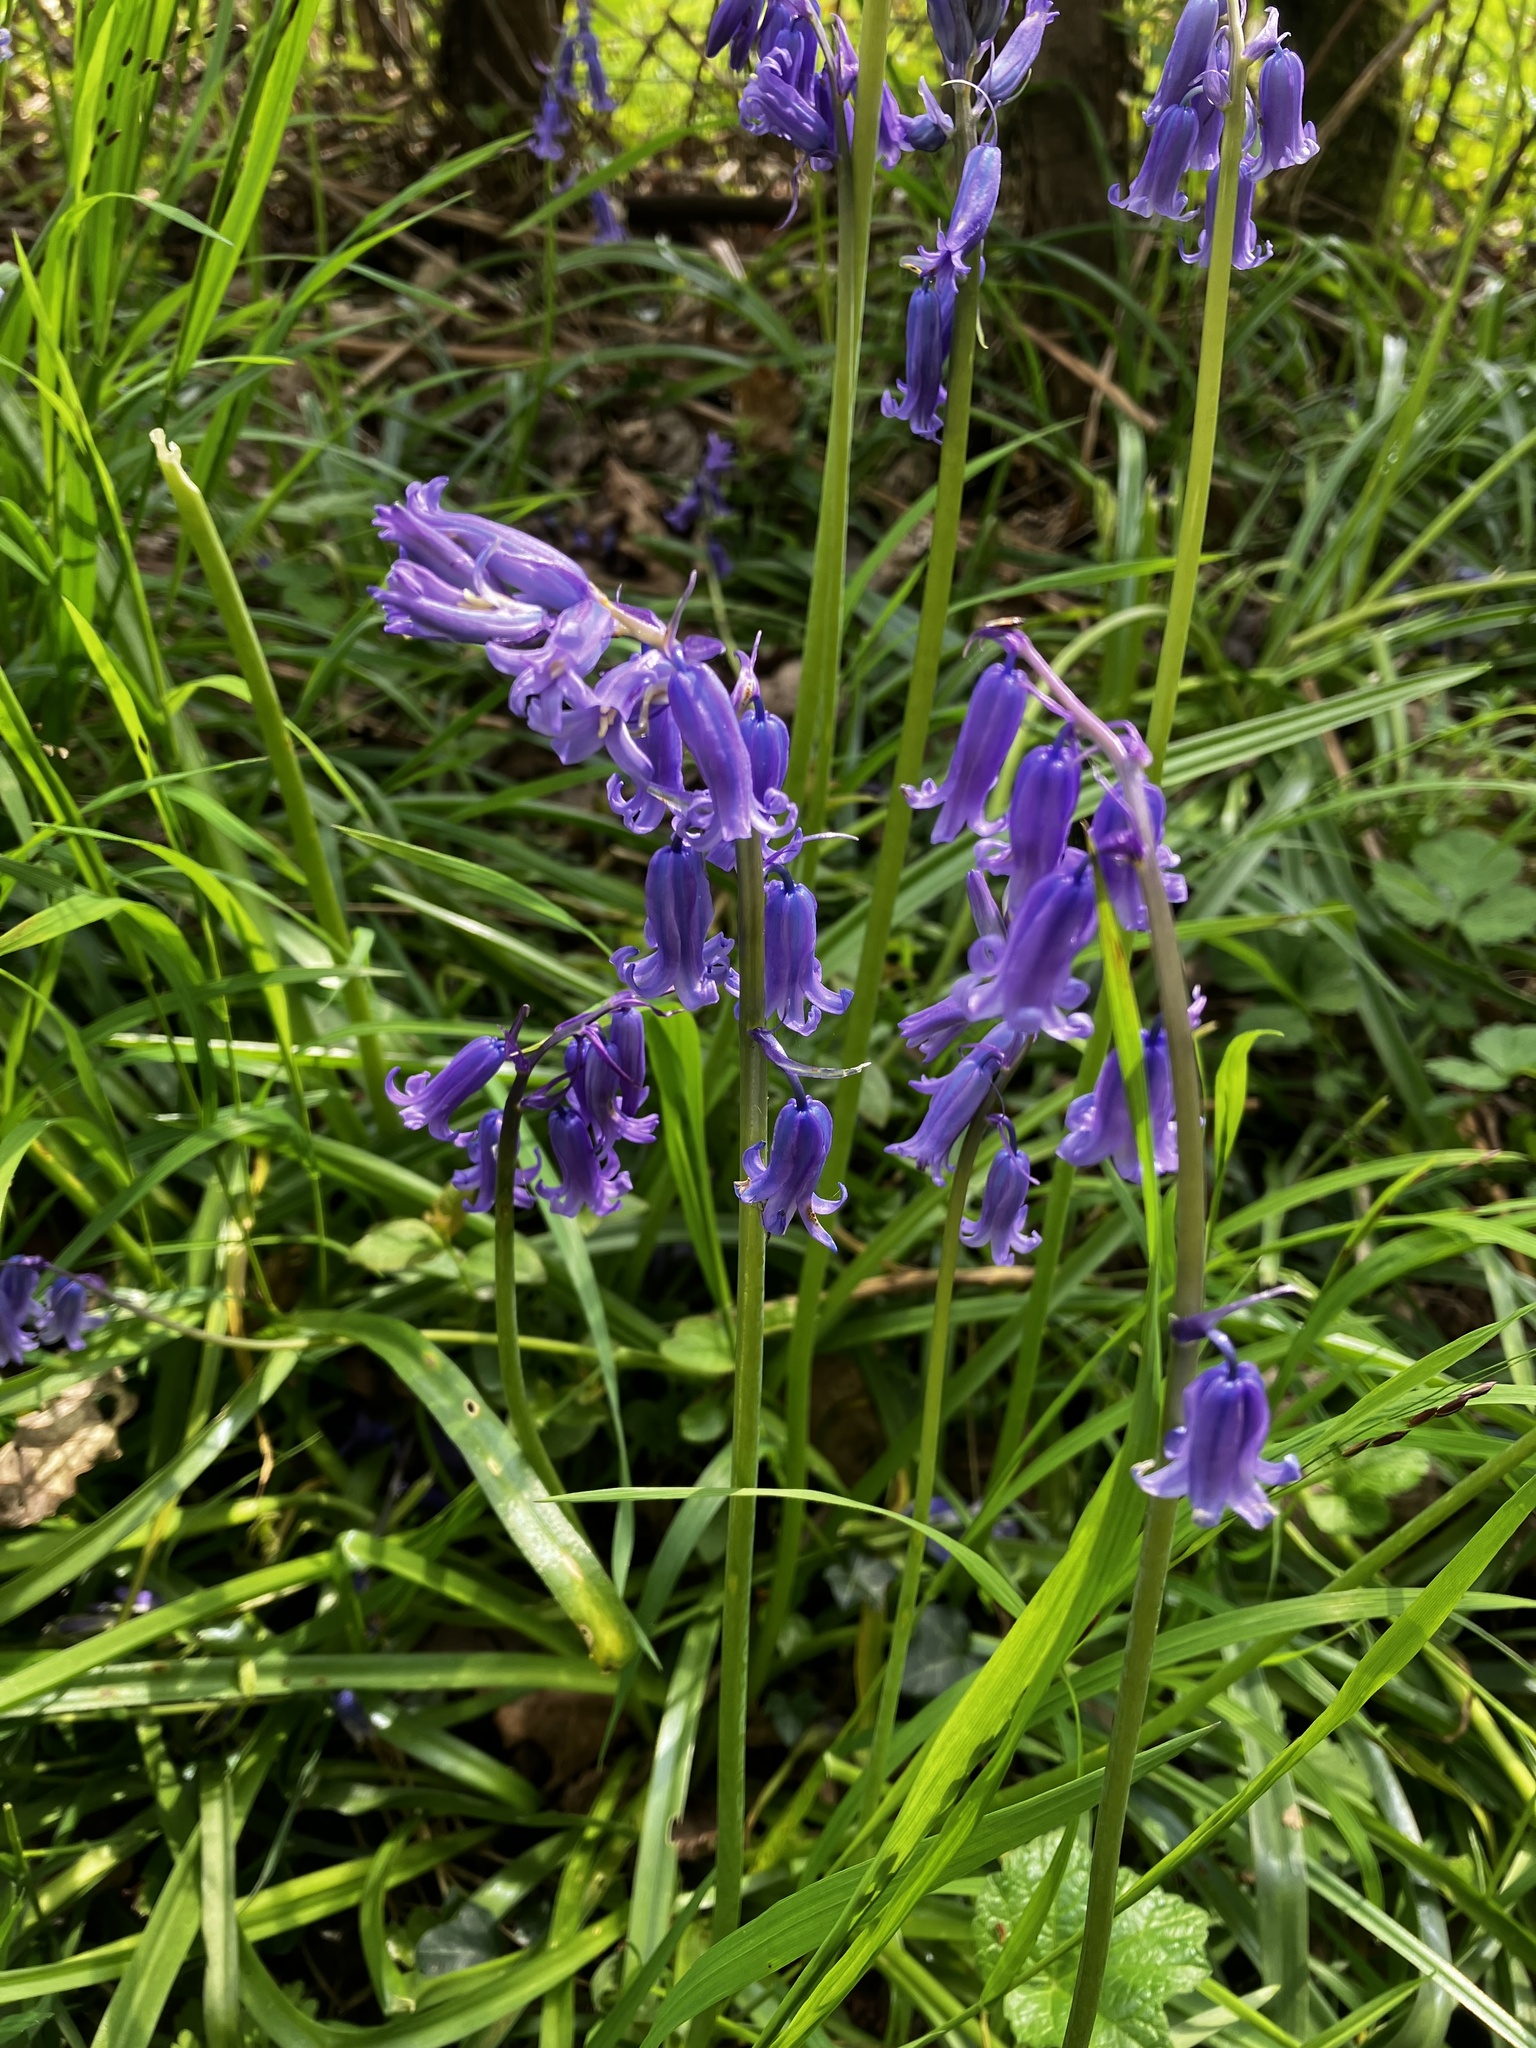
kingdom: Plantae
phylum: Tracheophyta
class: Liliopsida
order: Asparagales
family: Asparagaceae
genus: Hyacinthoides
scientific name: Hyacinthoides non-scripta
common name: Bluebell
